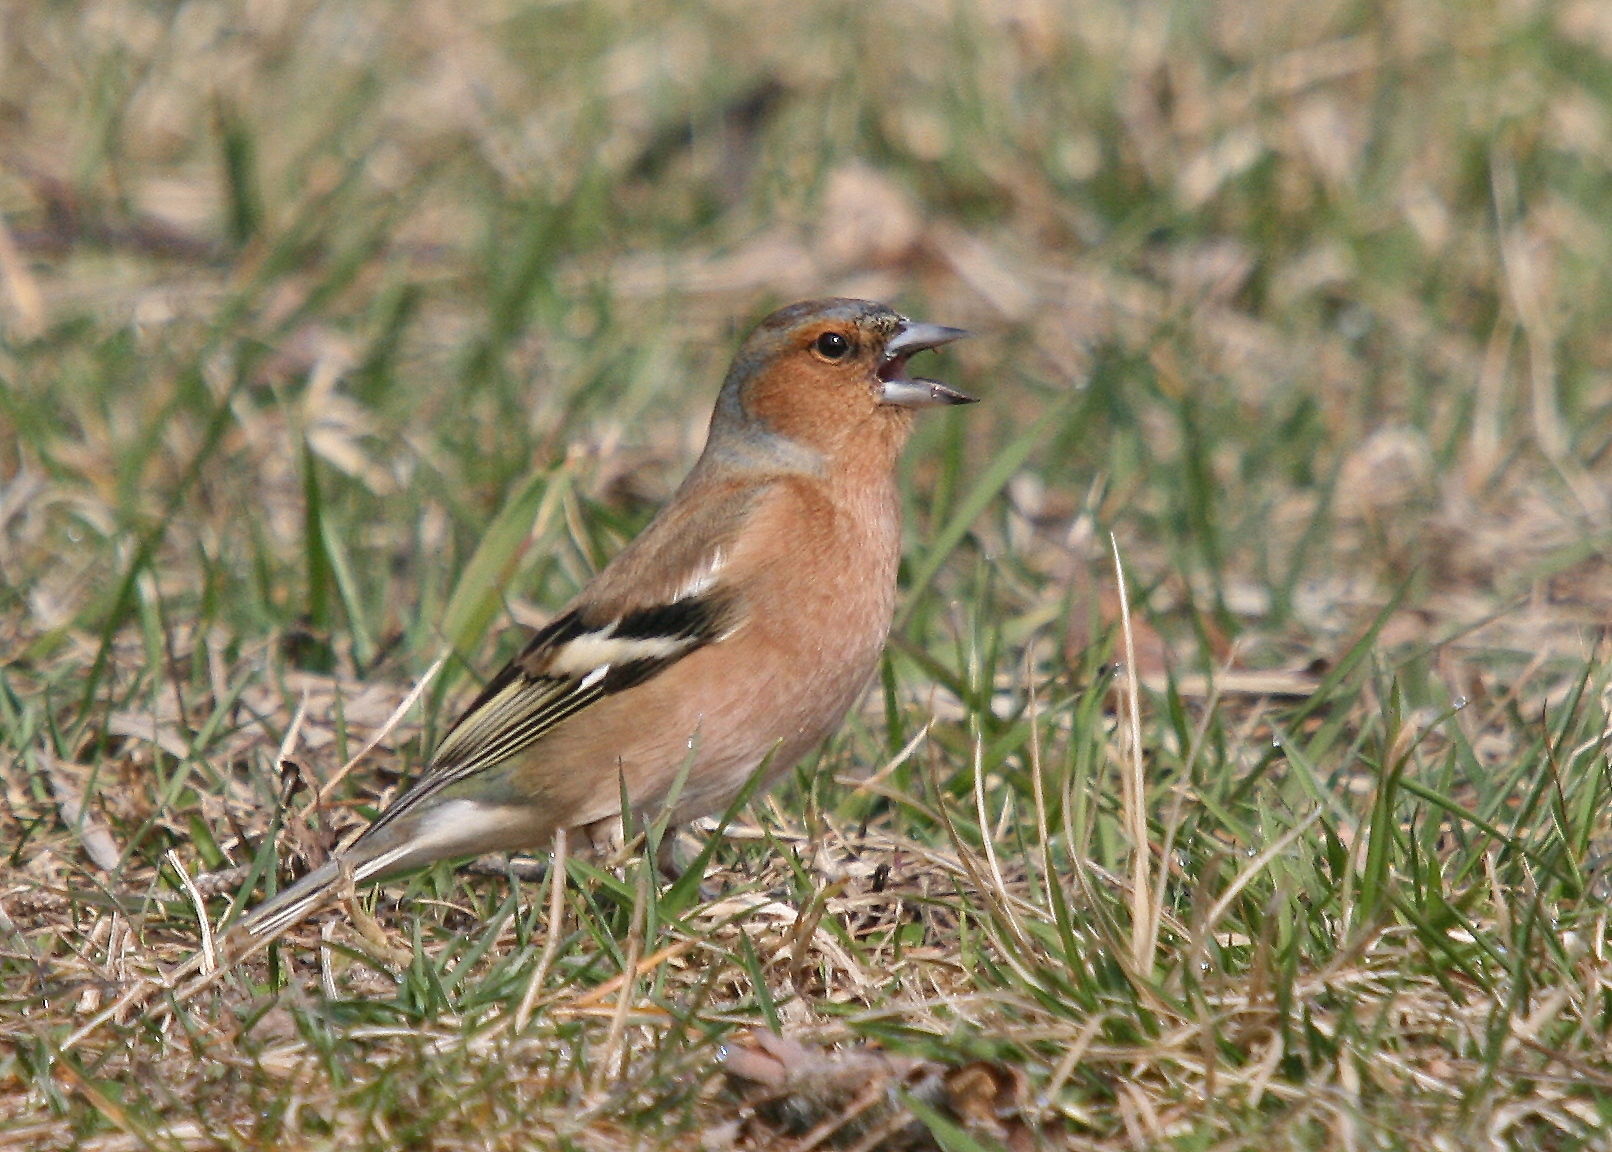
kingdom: Animalia
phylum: Chordata
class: Aves
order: Passeriformes
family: Fringillidae
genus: Fringilla
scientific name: Fringilla coelebs
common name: Common chaffinch
